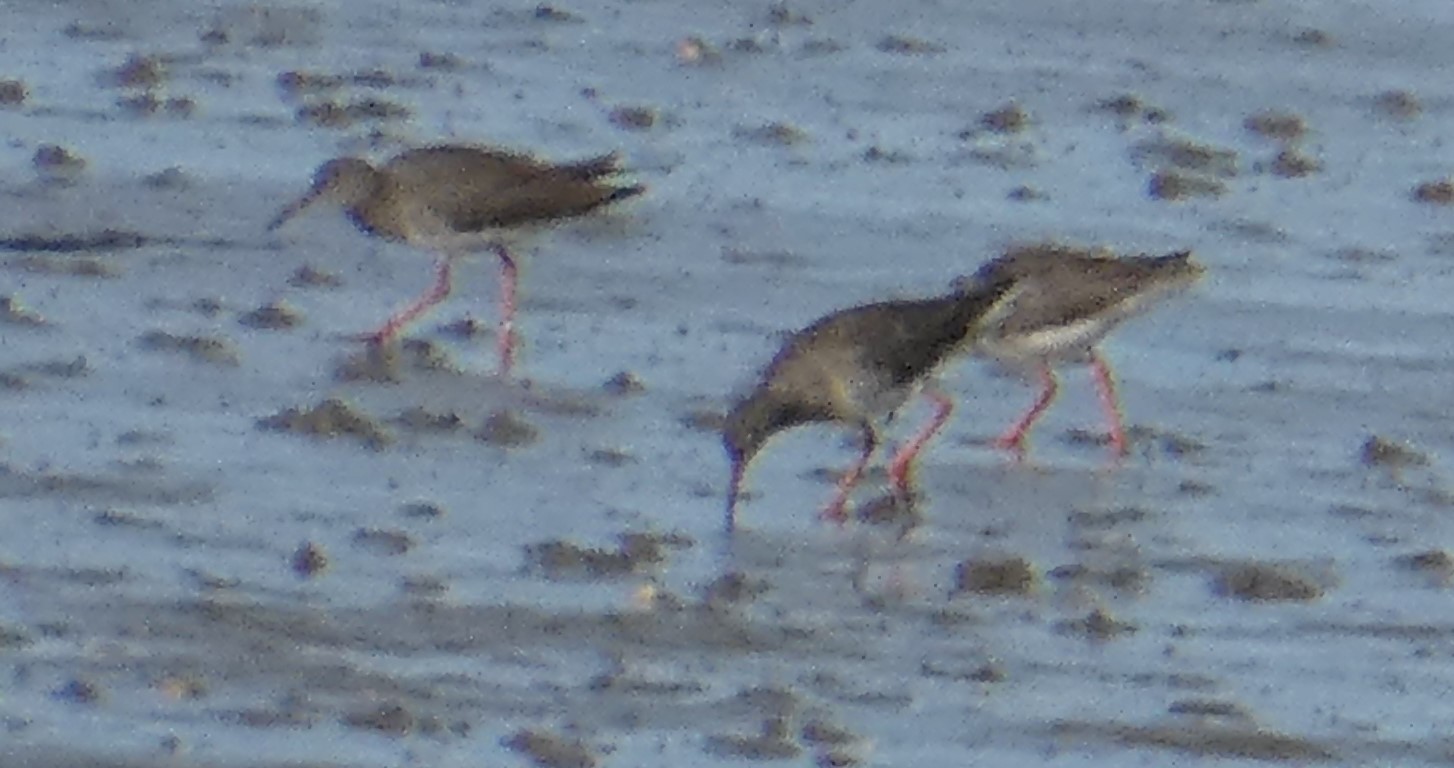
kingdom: Animalia
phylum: Chordata
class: Aves
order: Charadriiformes
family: Scolopacidae
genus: Tringa
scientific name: Tringa totanus
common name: Common redshank
